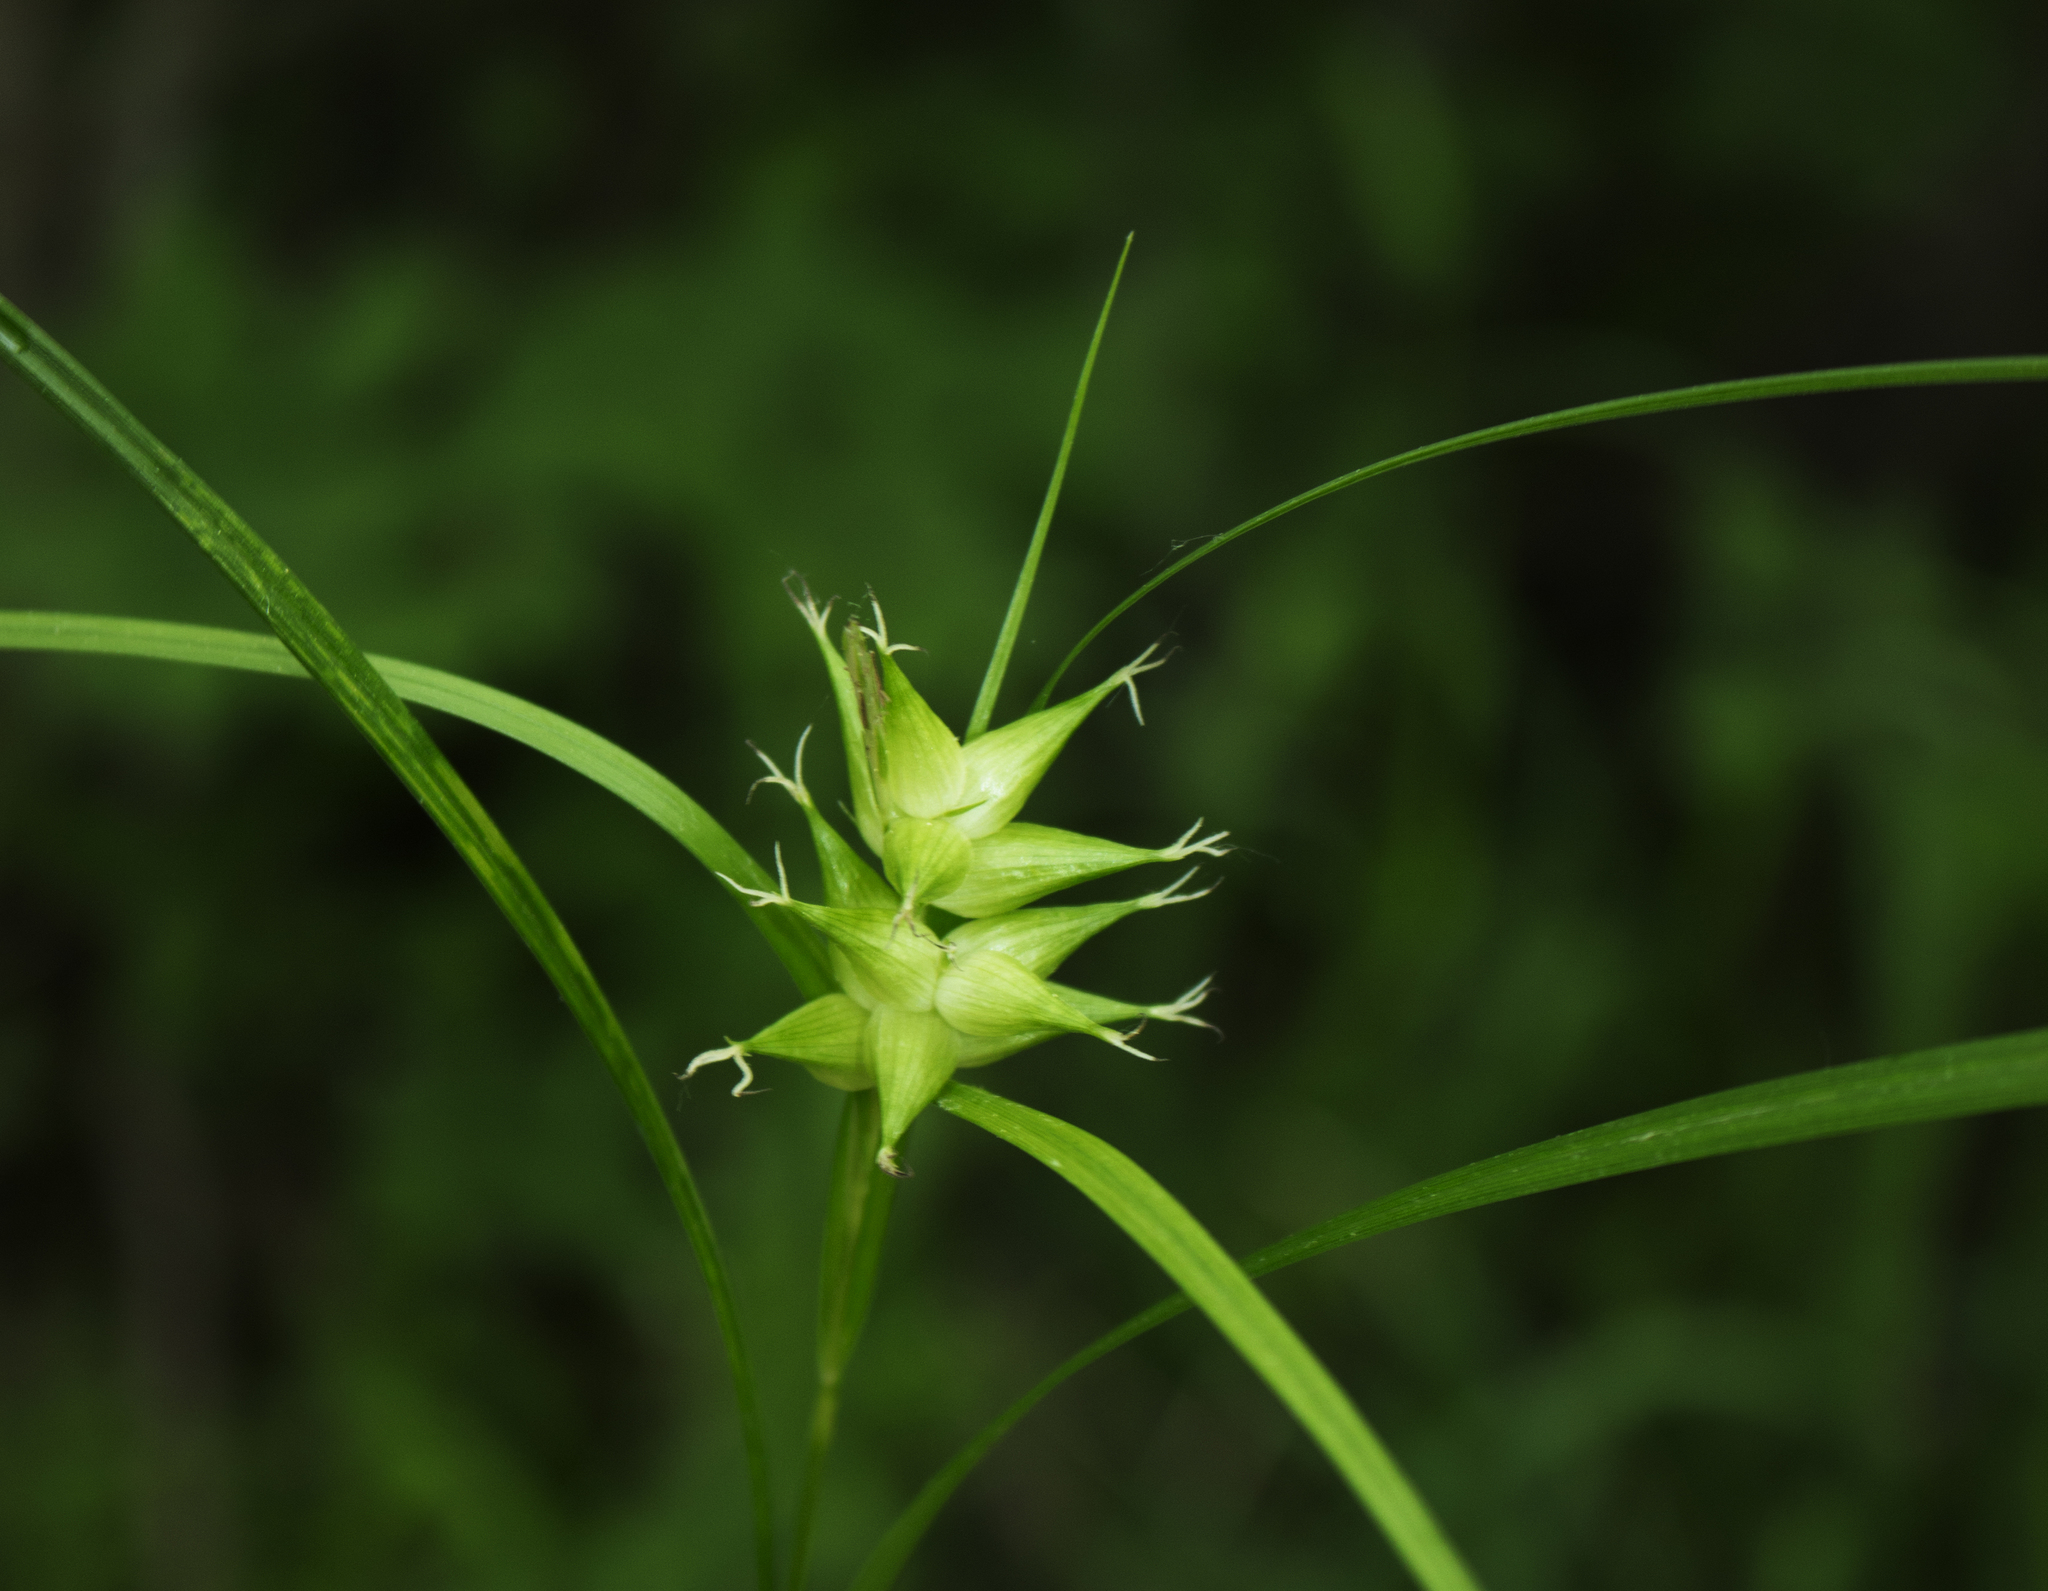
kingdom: Plantae
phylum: Tracheophyta
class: Liliopsida
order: Poales
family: Cyperaceae
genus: Carex
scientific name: Carex intumescens
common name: Greater bladder sedge
